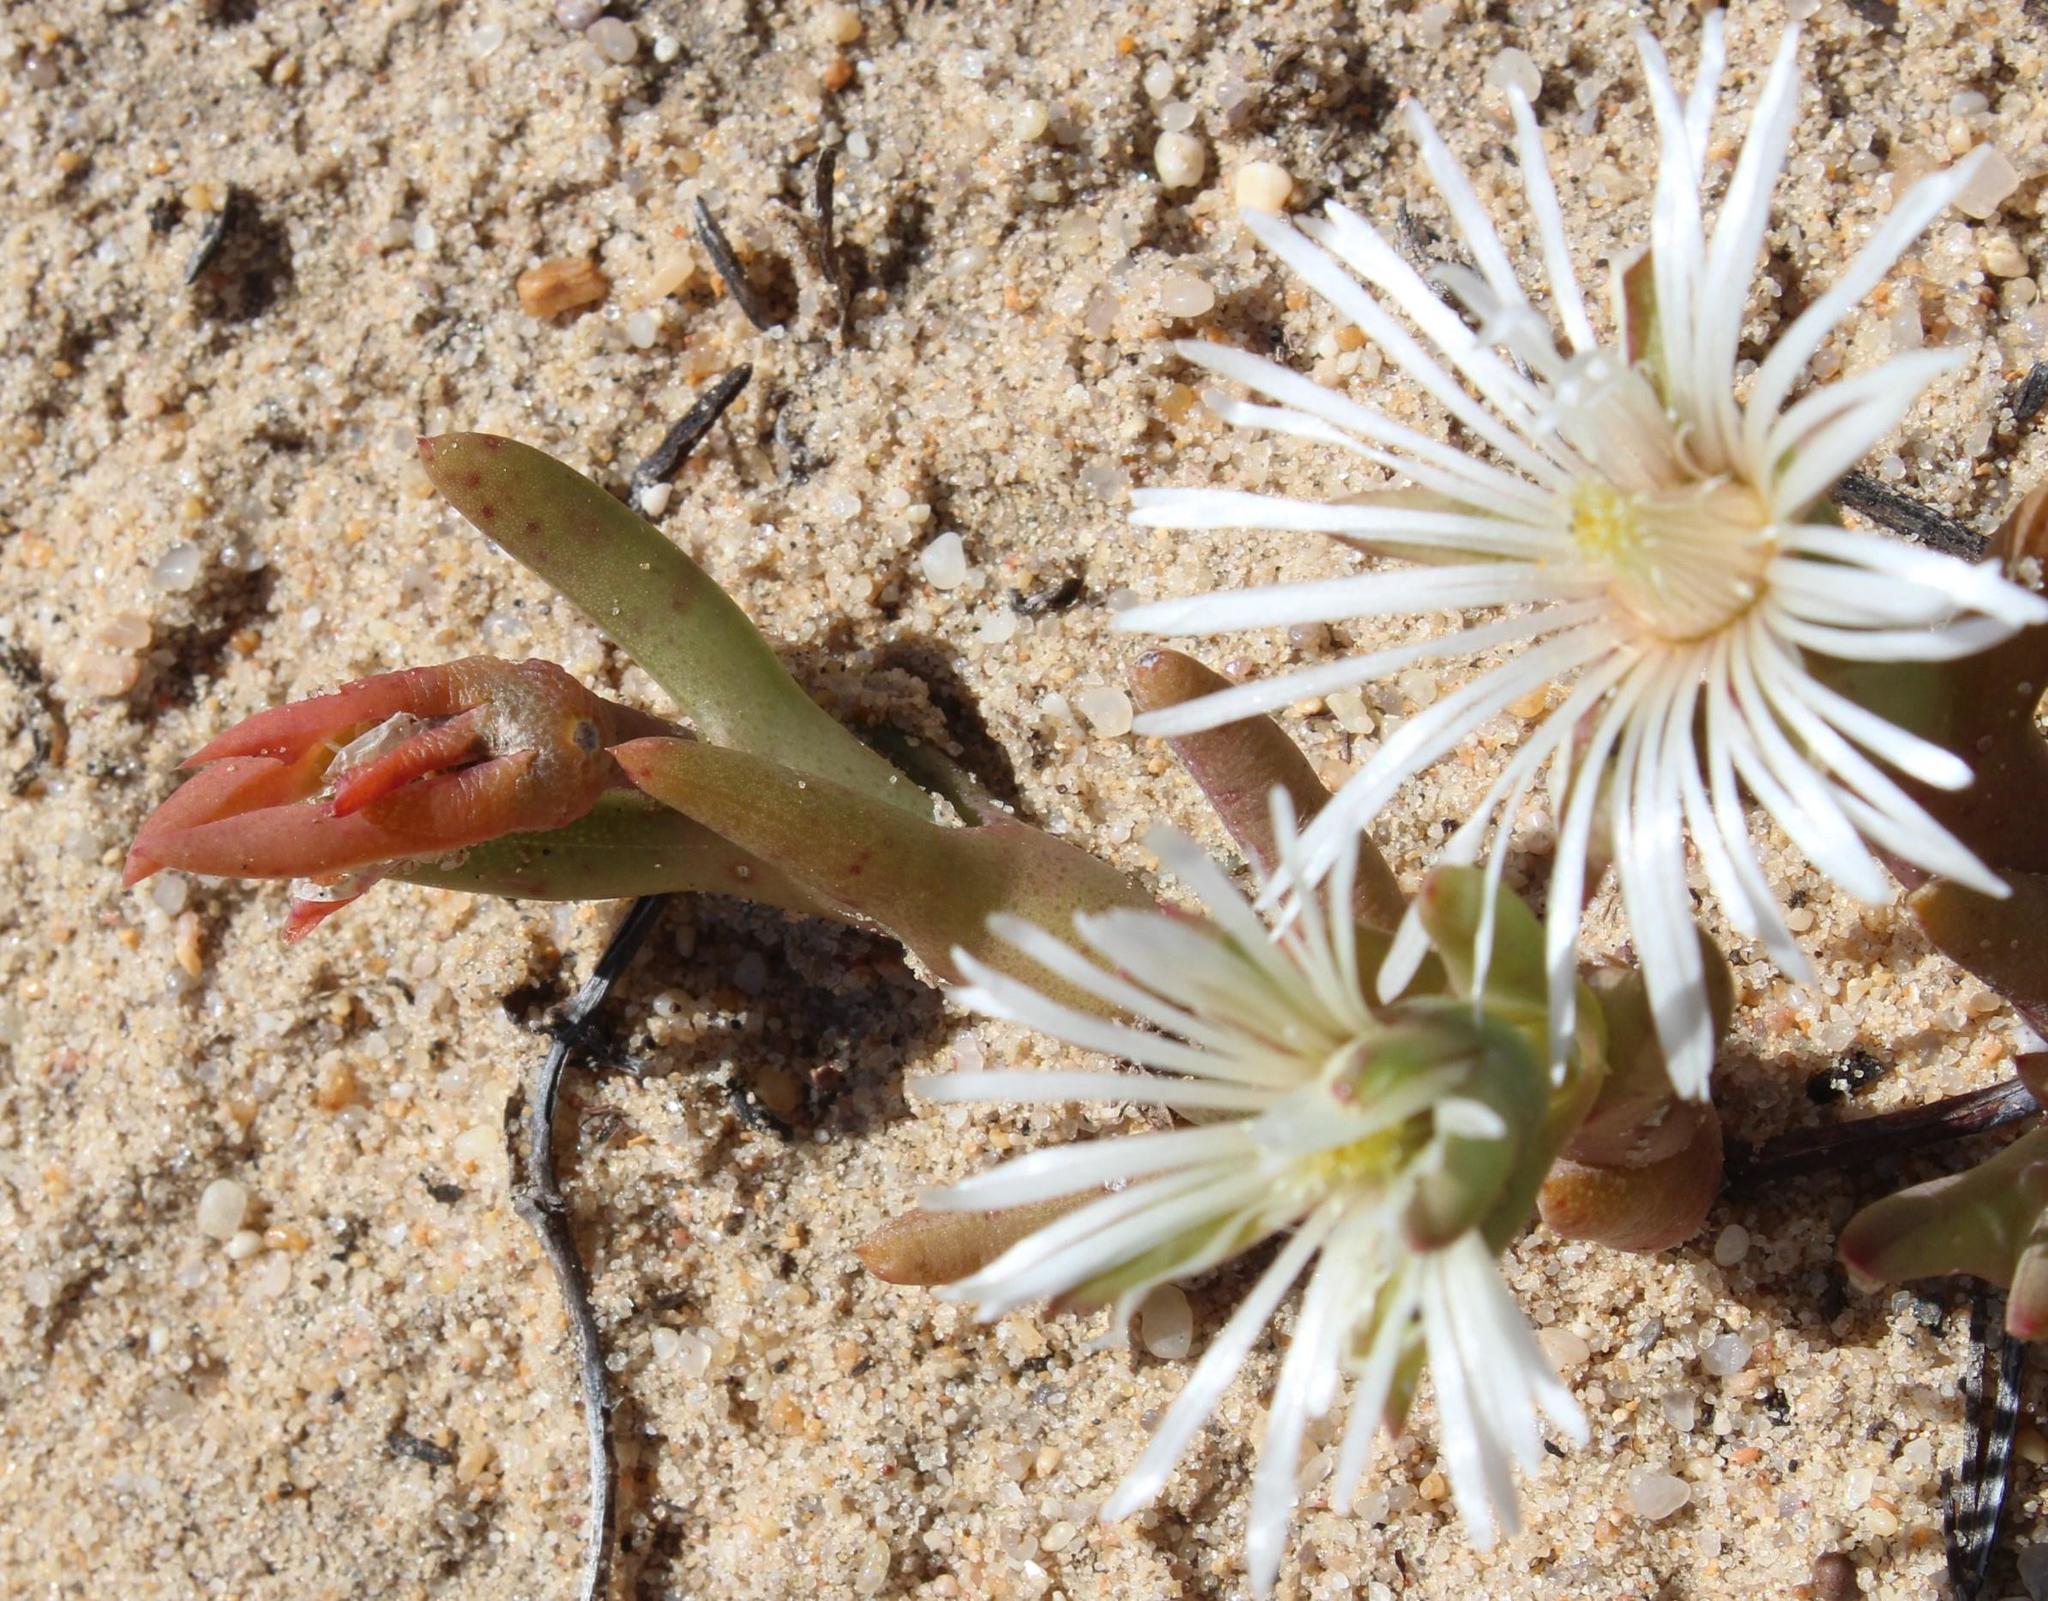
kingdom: Plantae
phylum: Tracheophyta
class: Magnoliopsida
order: Caryophyllales
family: Aizoaceae
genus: Vanzijlia
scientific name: Vanzijlia annulata
